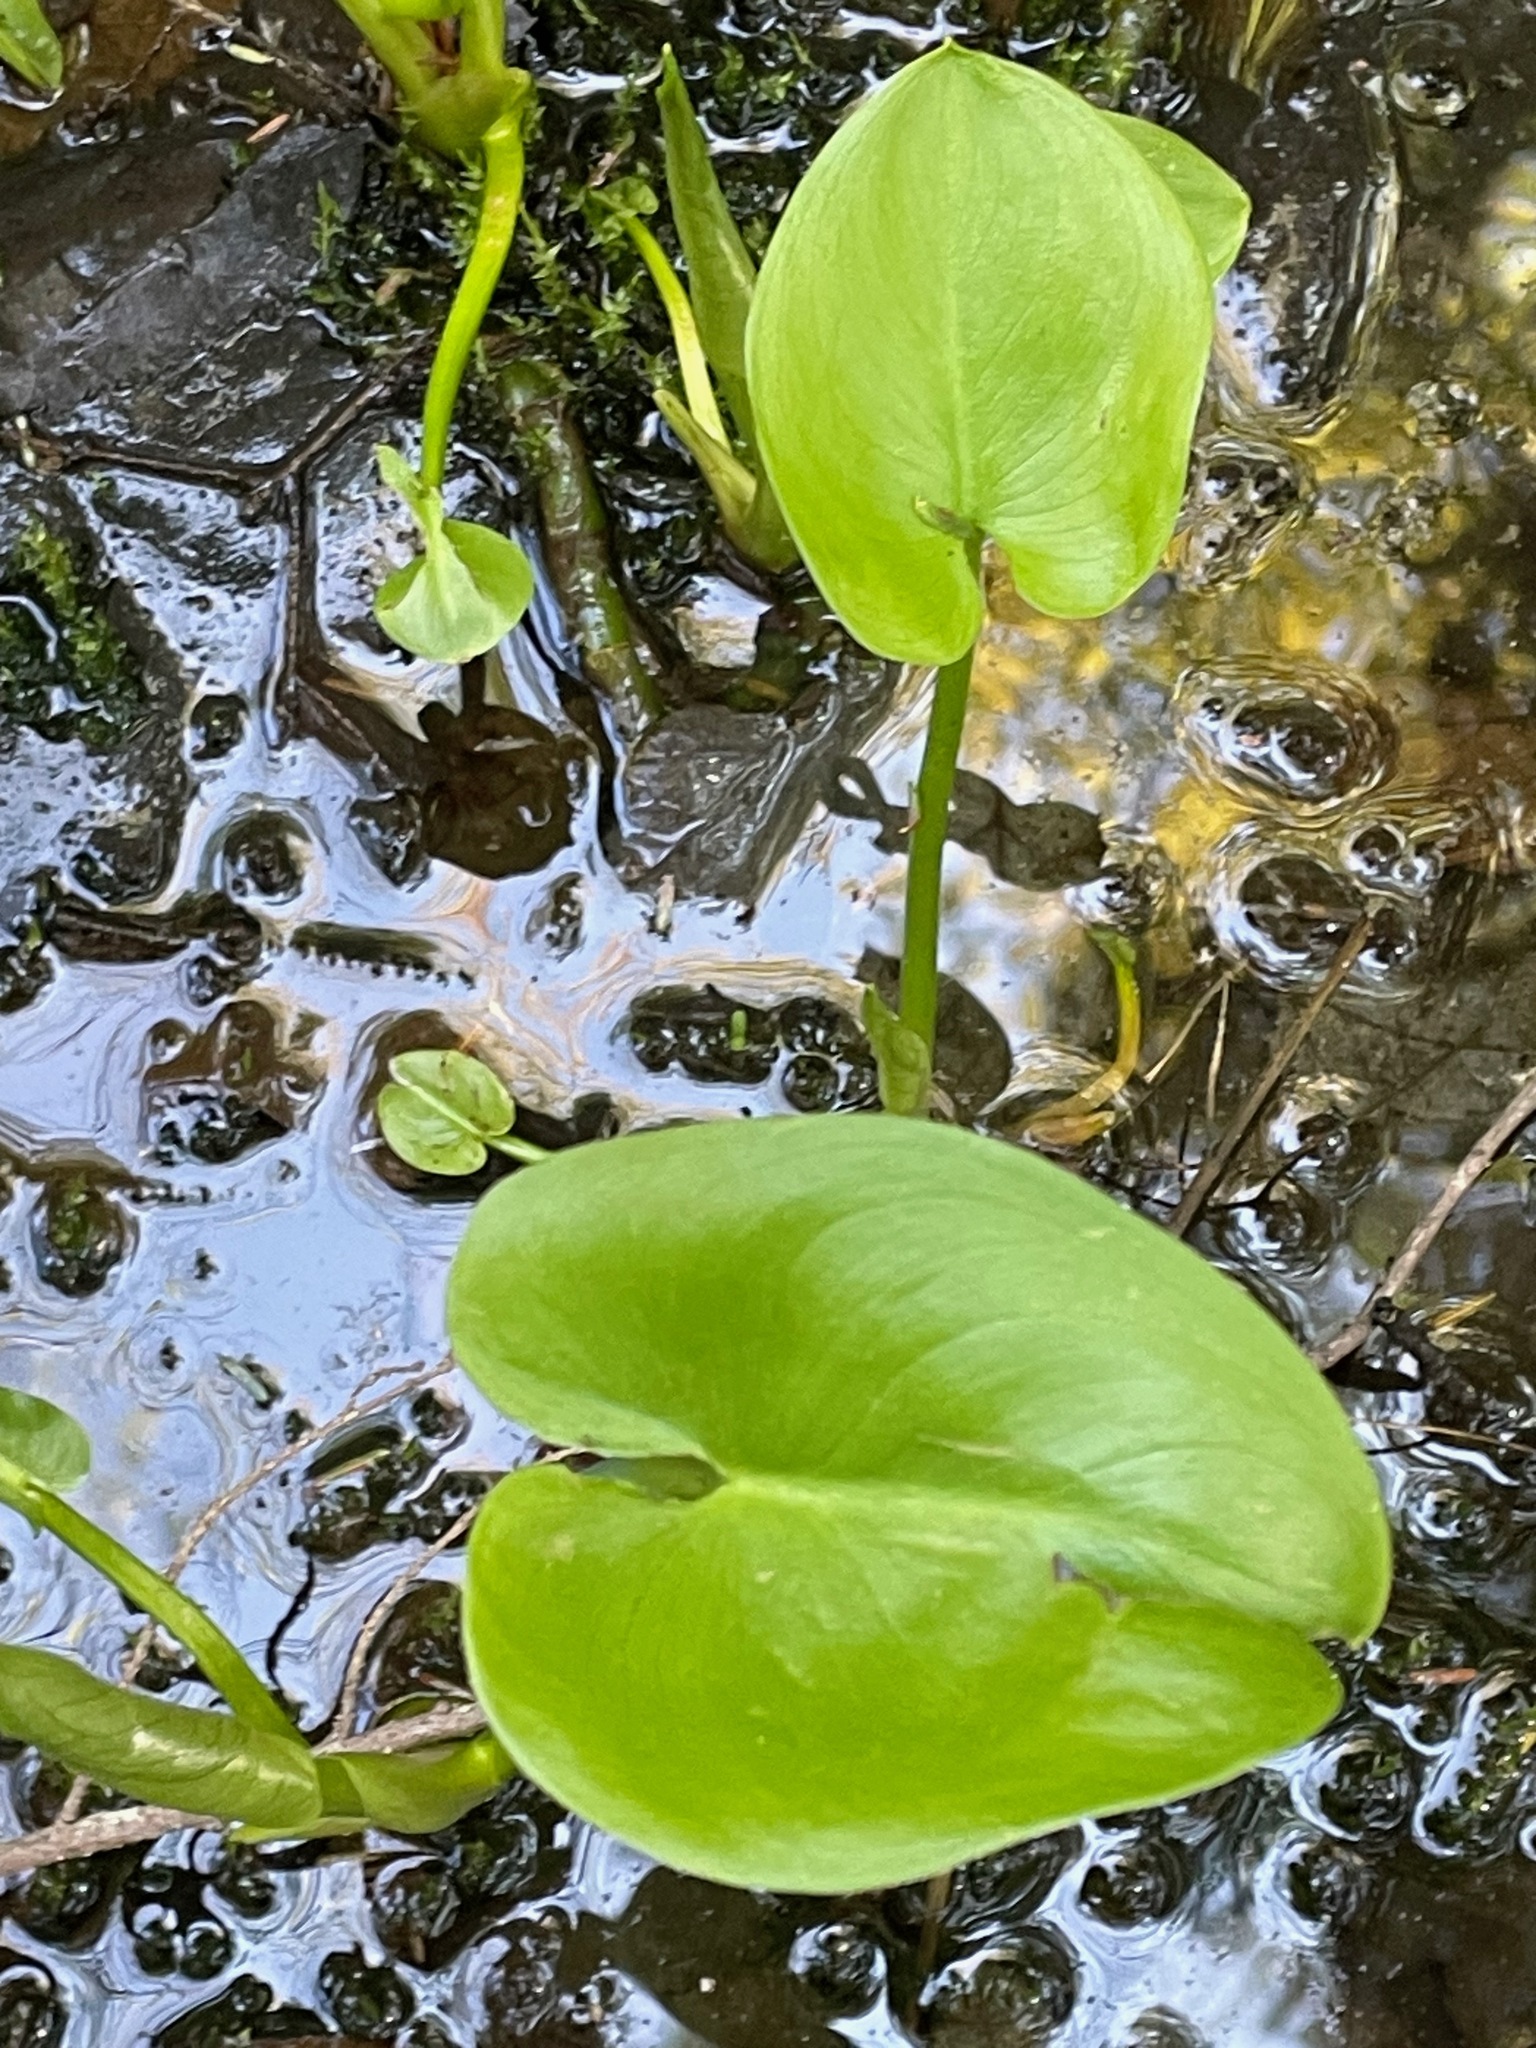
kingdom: Plantae
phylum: Tracheophyta
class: Liliopsida
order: Alismatales
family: Araceae
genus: Calla
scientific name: Calla palustris
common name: Bog arum
